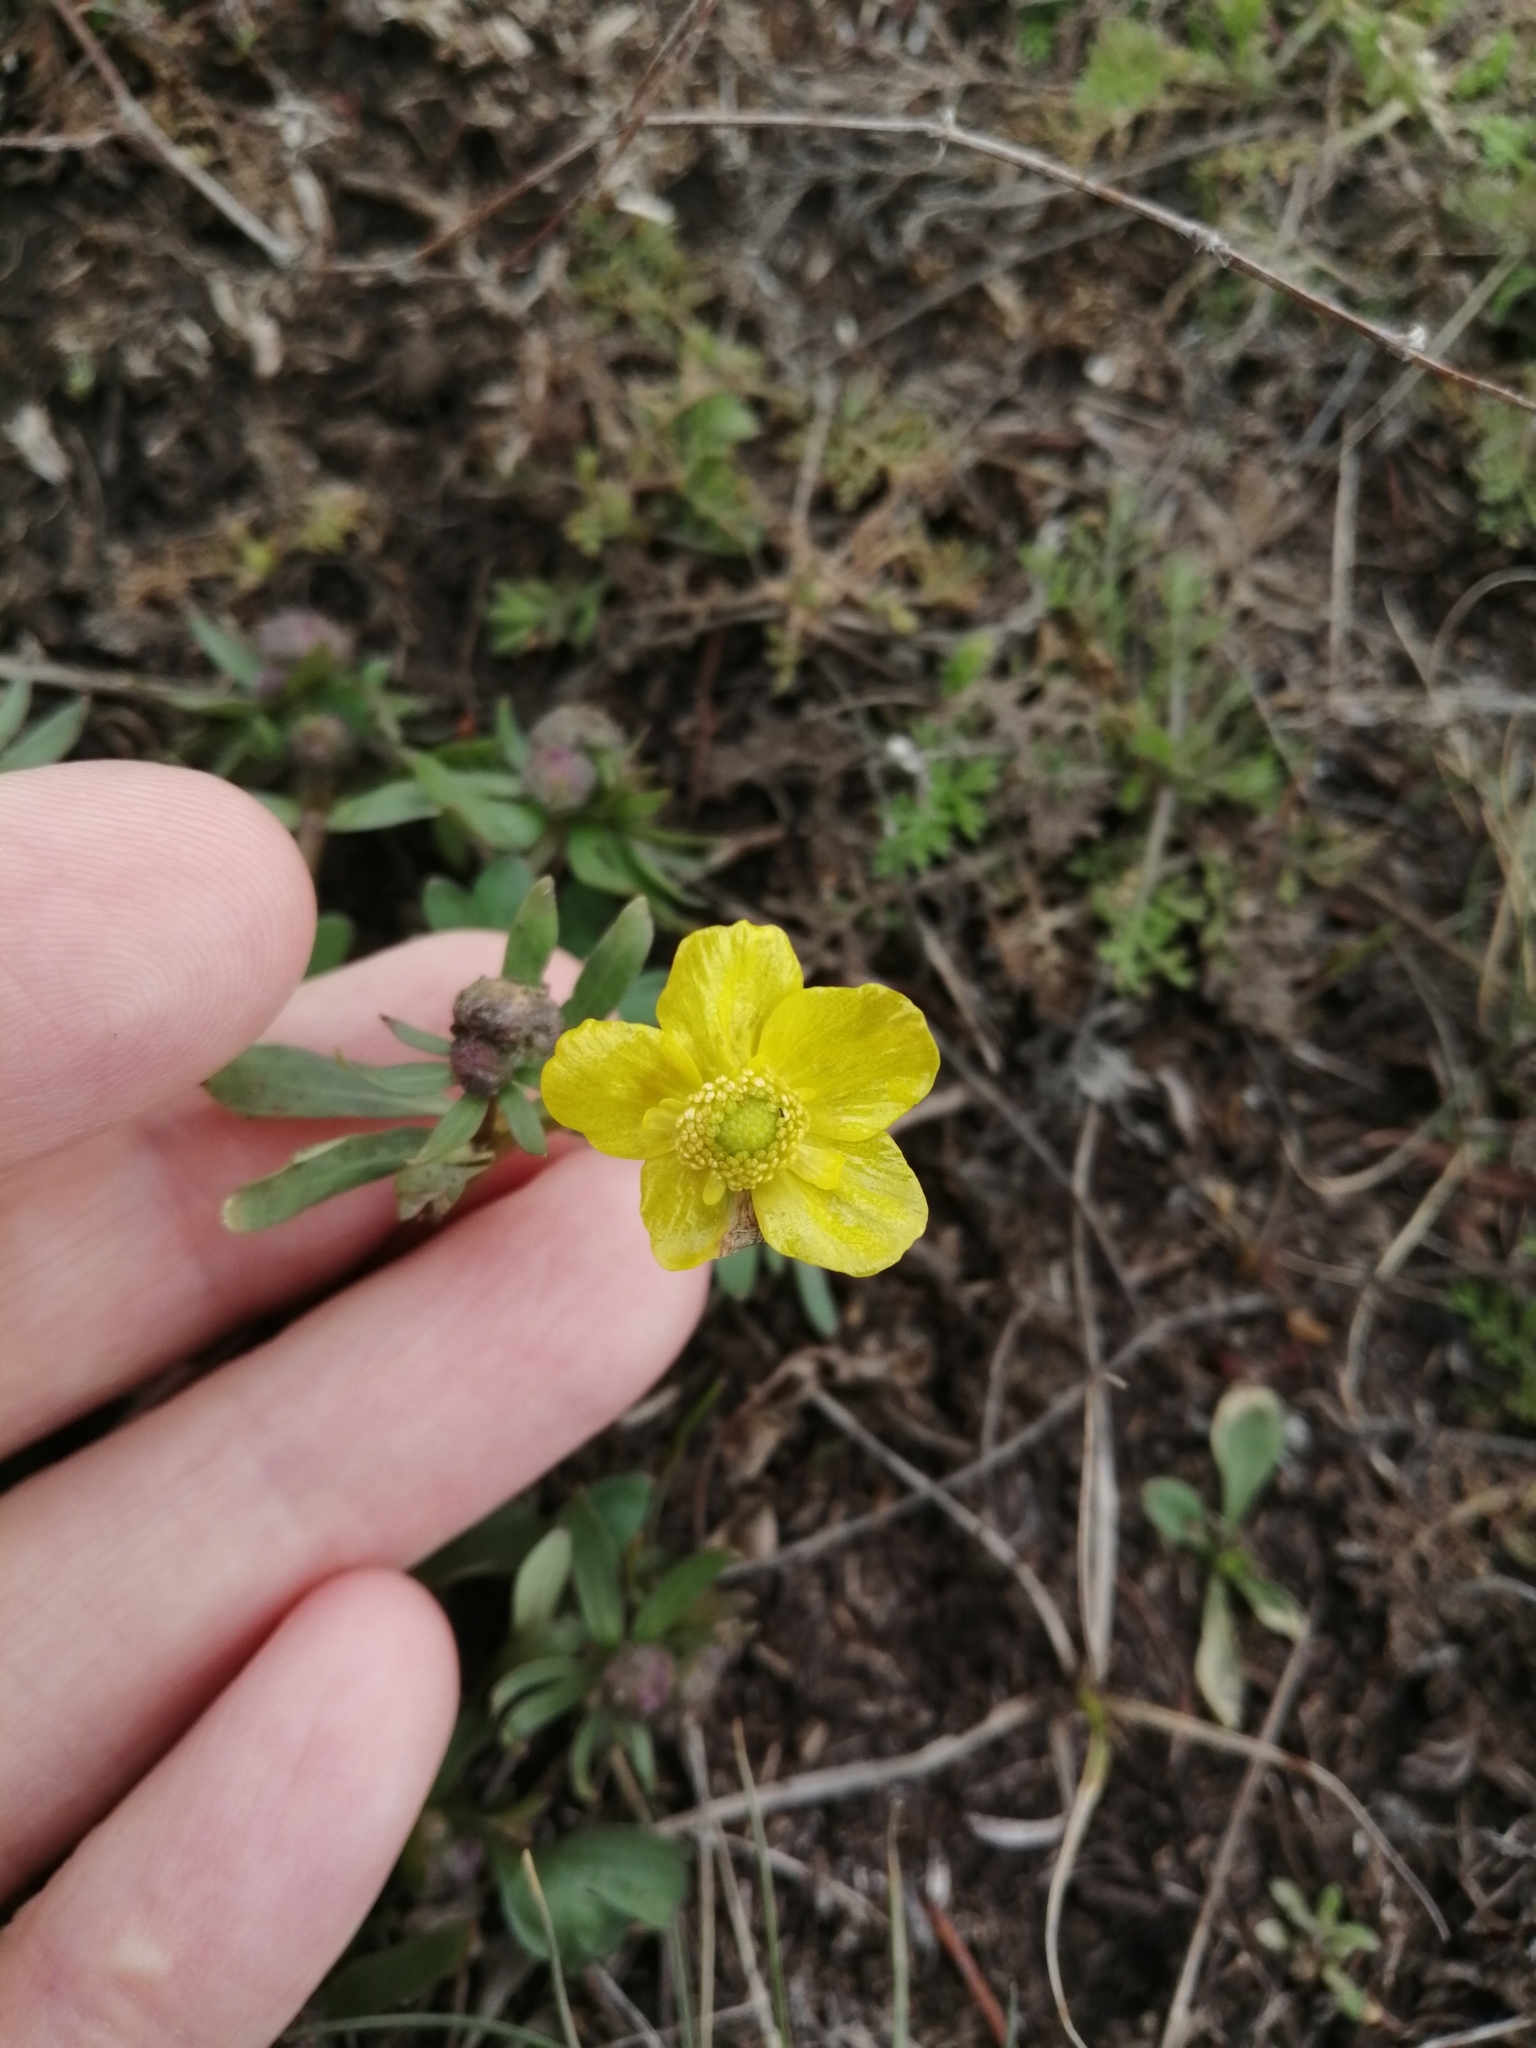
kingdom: Plantae
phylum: Tracheophyta
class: Magnoliopsida
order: Ranunculales
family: Ranunculaceae
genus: Ranunculus
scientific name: Ranunculus polyrhizos
